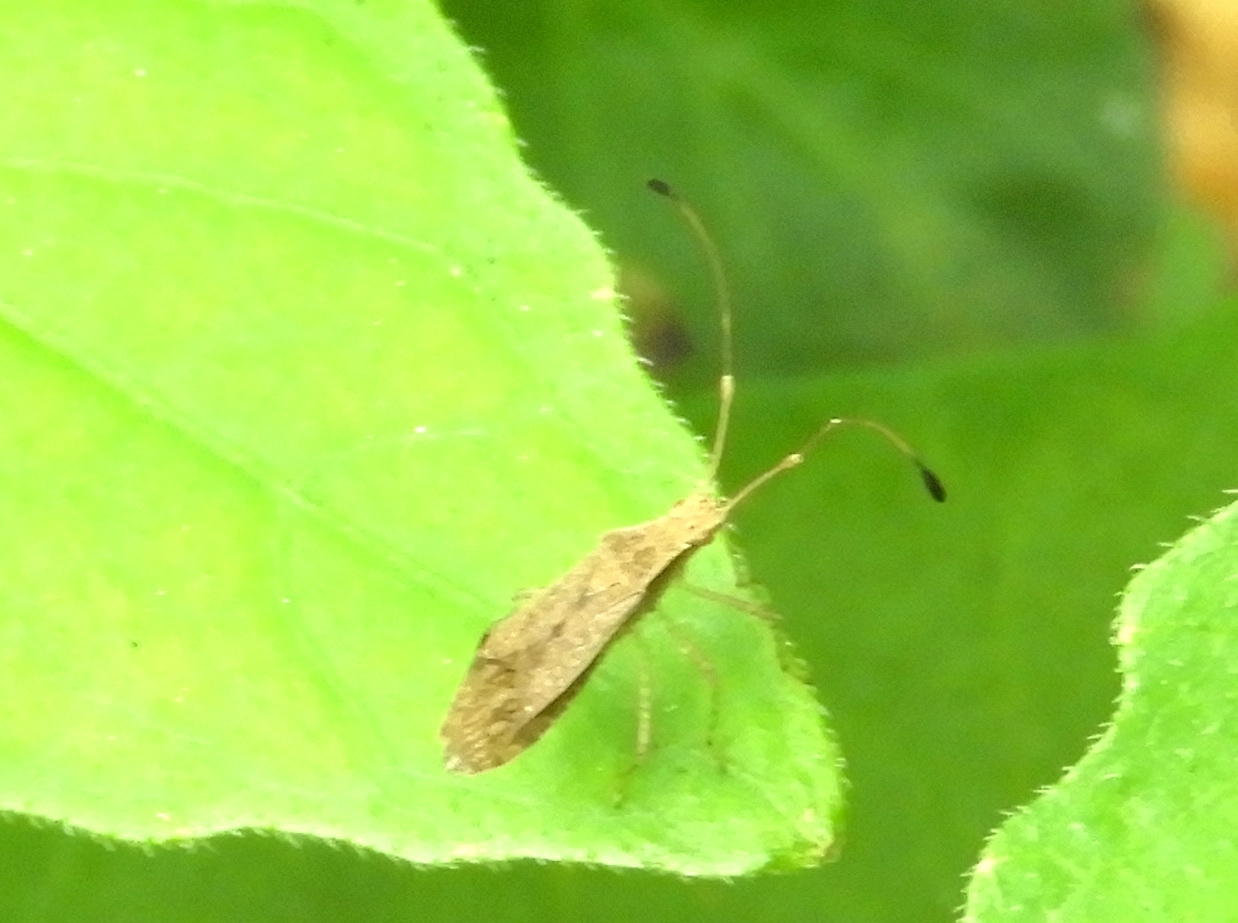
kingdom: Animalia
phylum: Arthropoda
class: Insecta
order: Hemiptera
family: Coreidae
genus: Madura
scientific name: Madura
